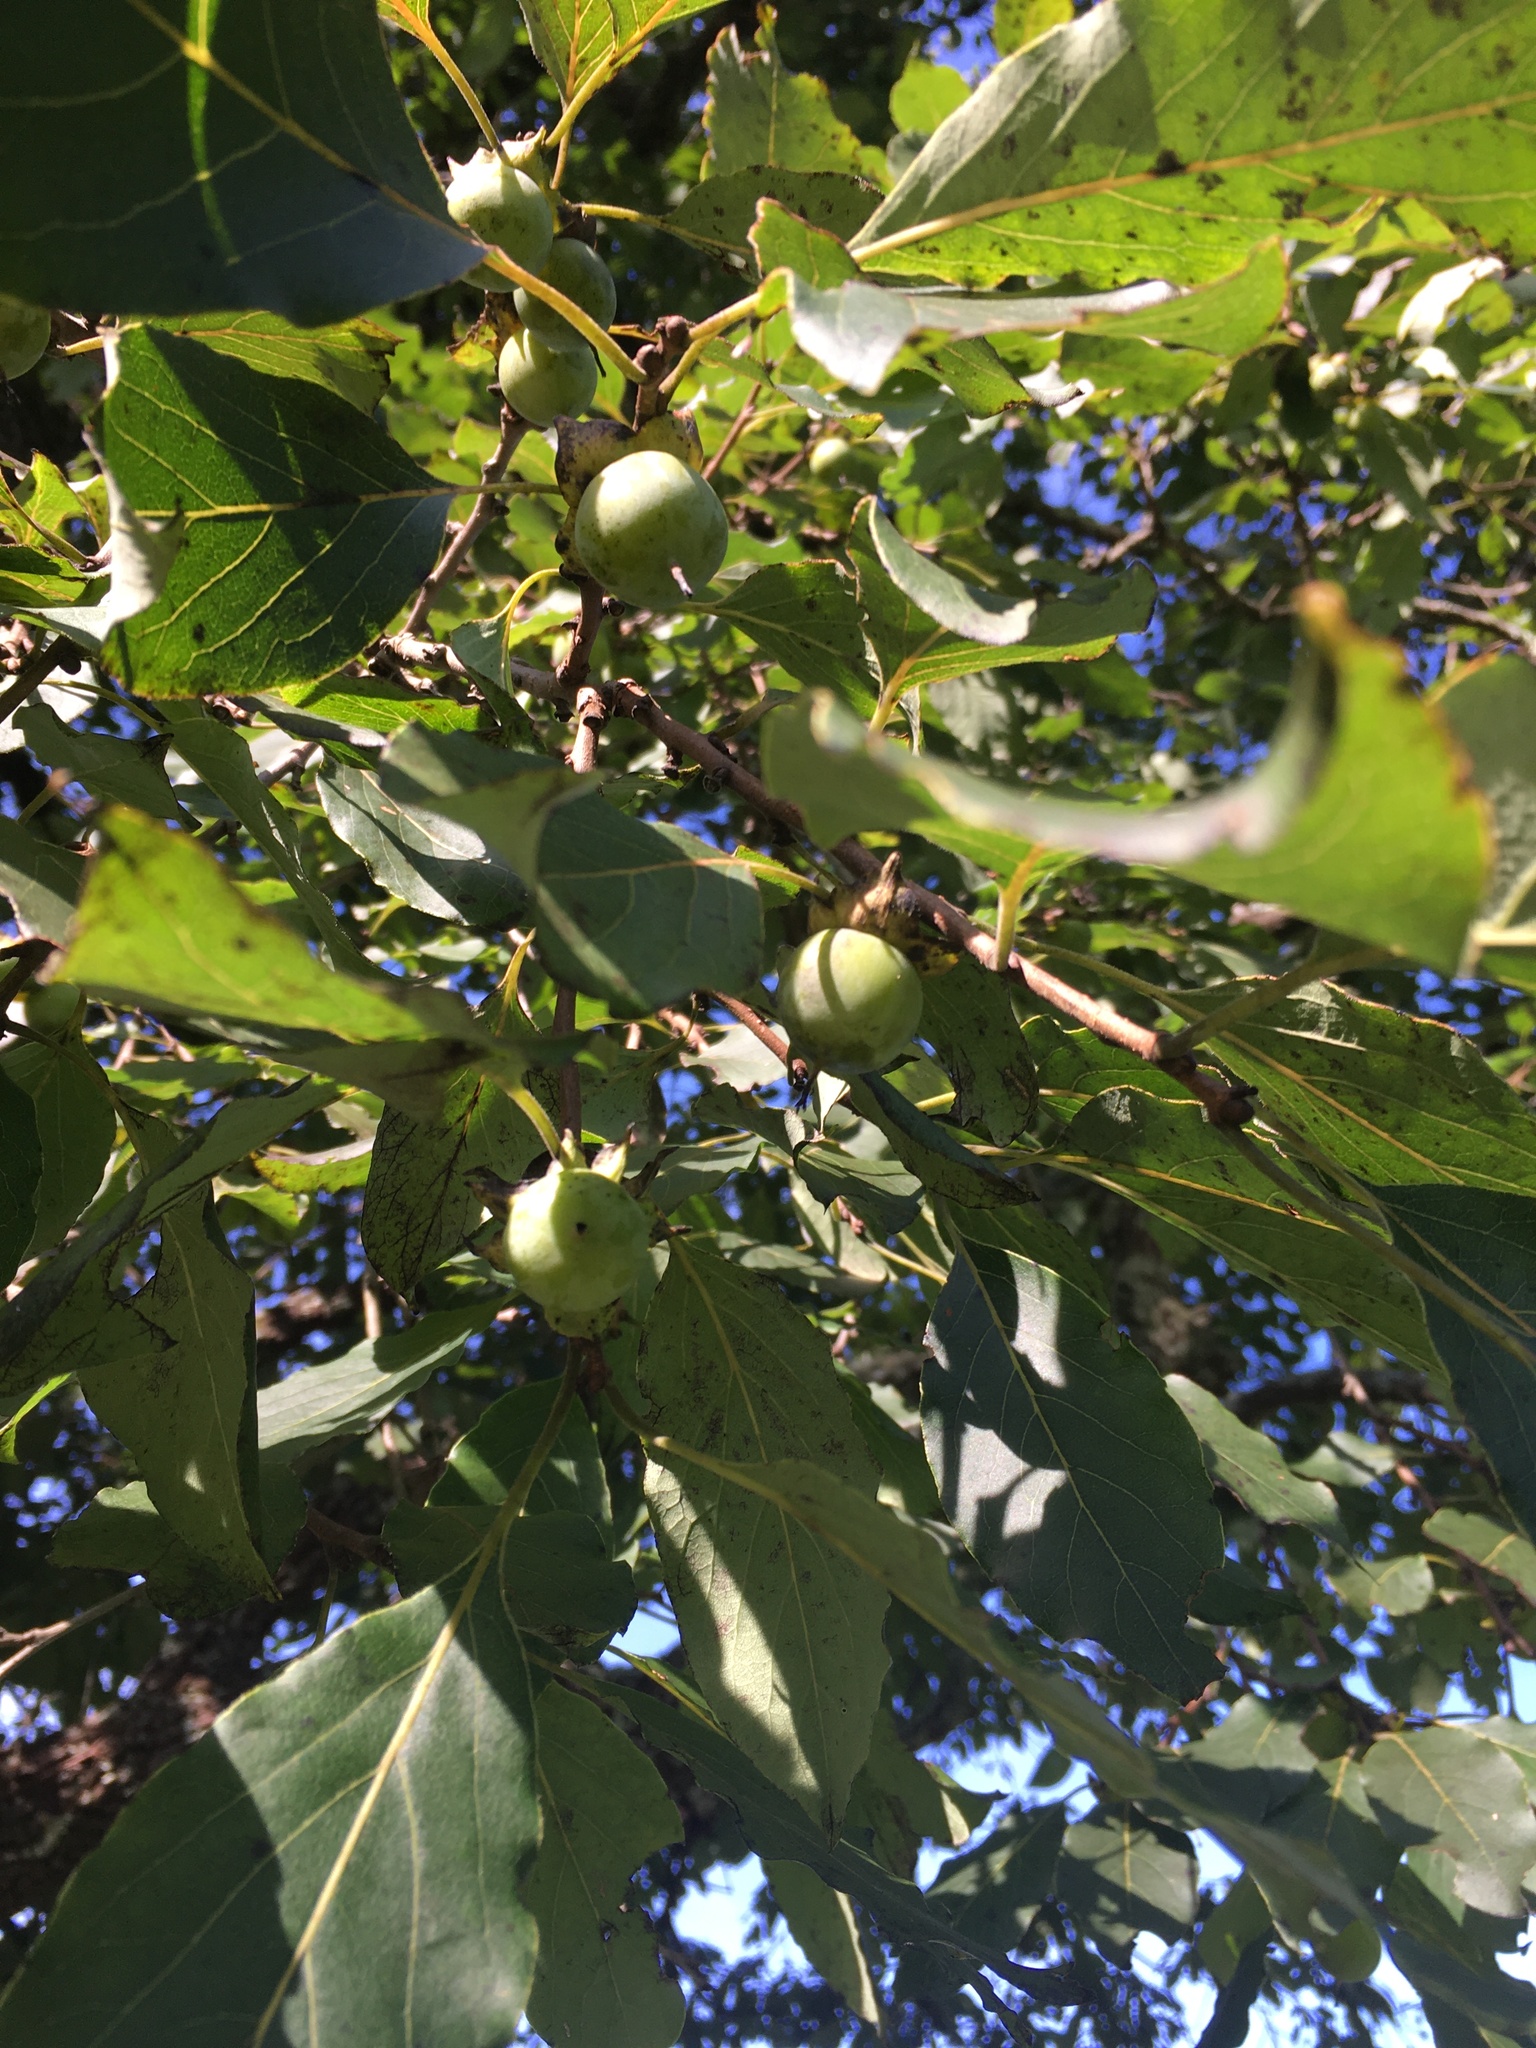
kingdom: Plantae
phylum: Tracheophyta
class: Magnoliopsida
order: Ericales
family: Ebenaceae
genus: Diospyros
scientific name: Diospyros virginiana
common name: Persimmon
